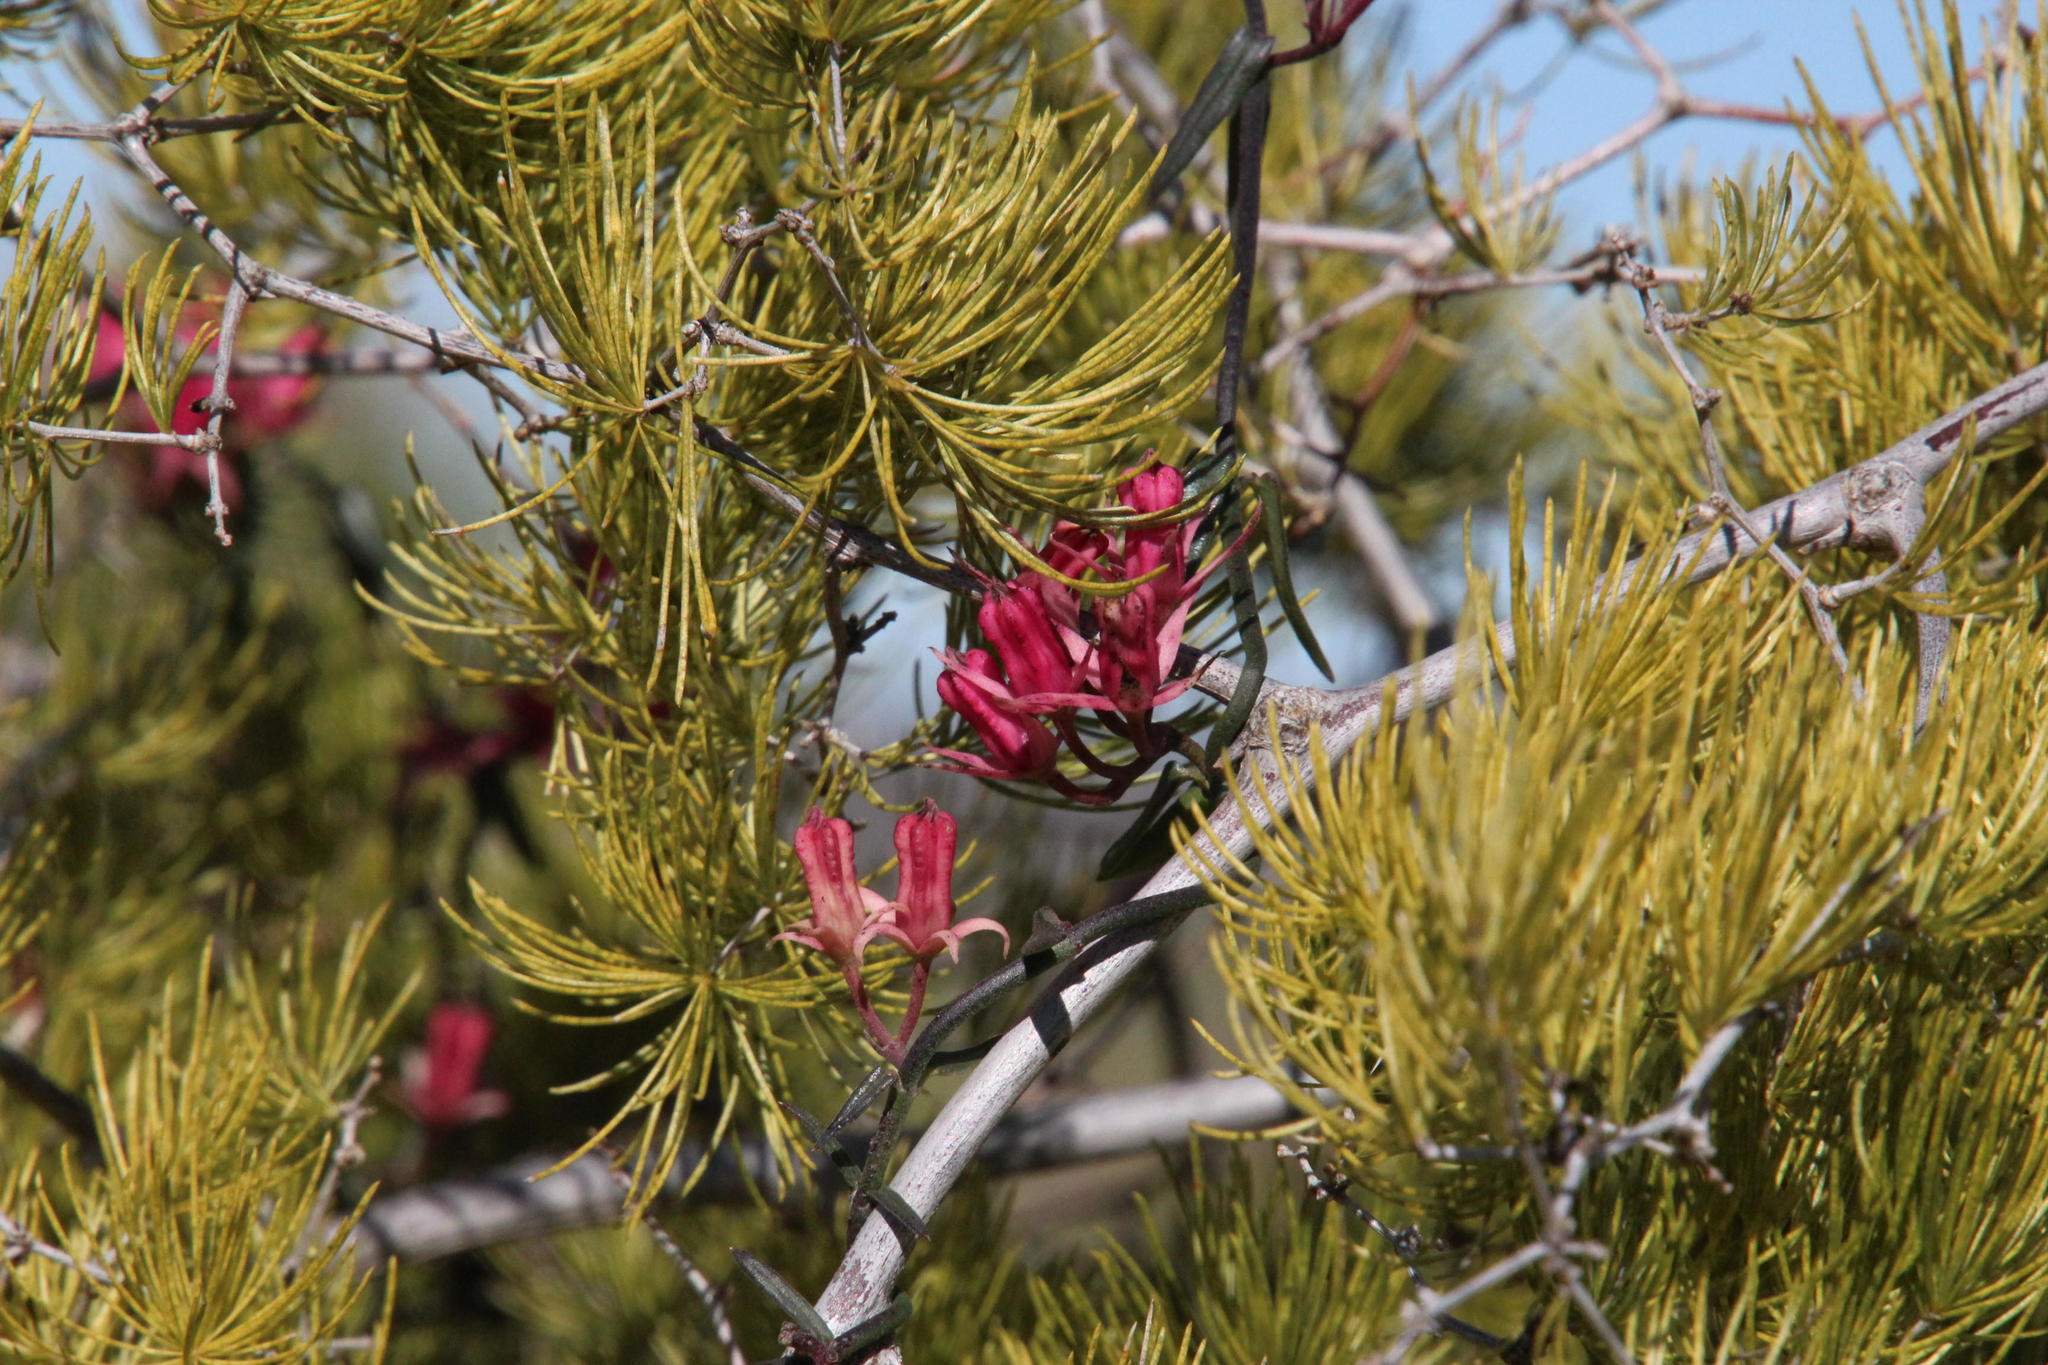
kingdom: Plantae
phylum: Tracheophyta
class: Magnoliopsida
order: Gentianales
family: Apocynaceae
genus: Microloma
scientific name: Microloma sagittatum
